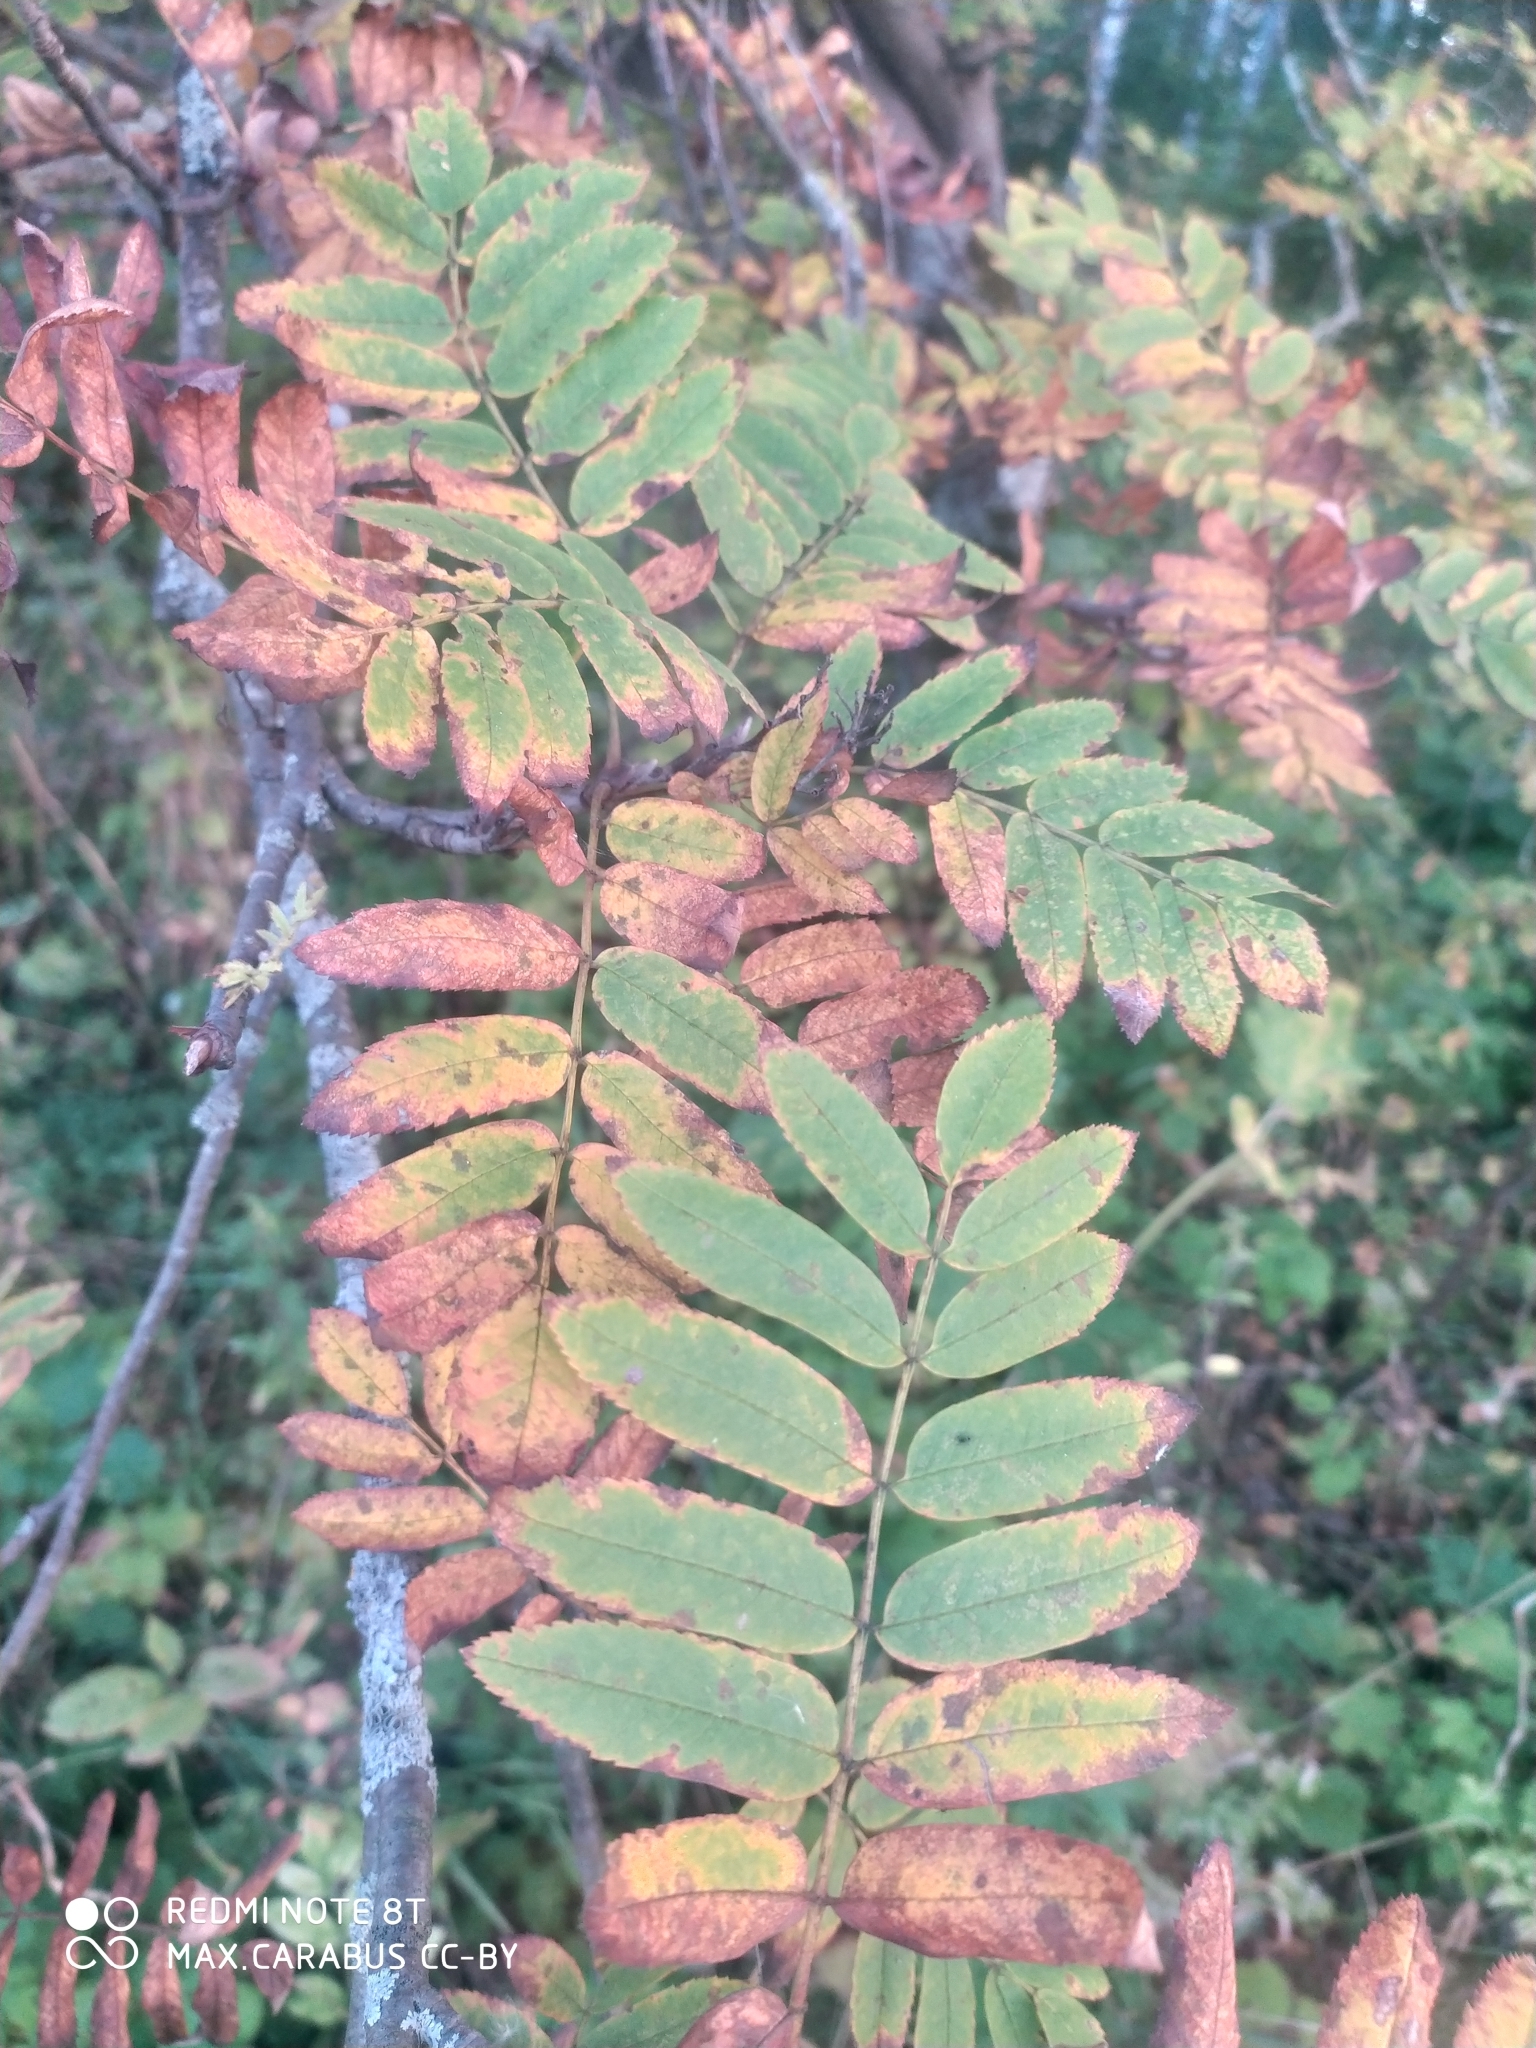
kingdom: Plantae
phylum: Tracheophyta
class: Magnoliopsida
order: Rosales
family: Rosaceae
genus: Sorbus
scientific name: Sorbus aucuparia
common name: Rowan
